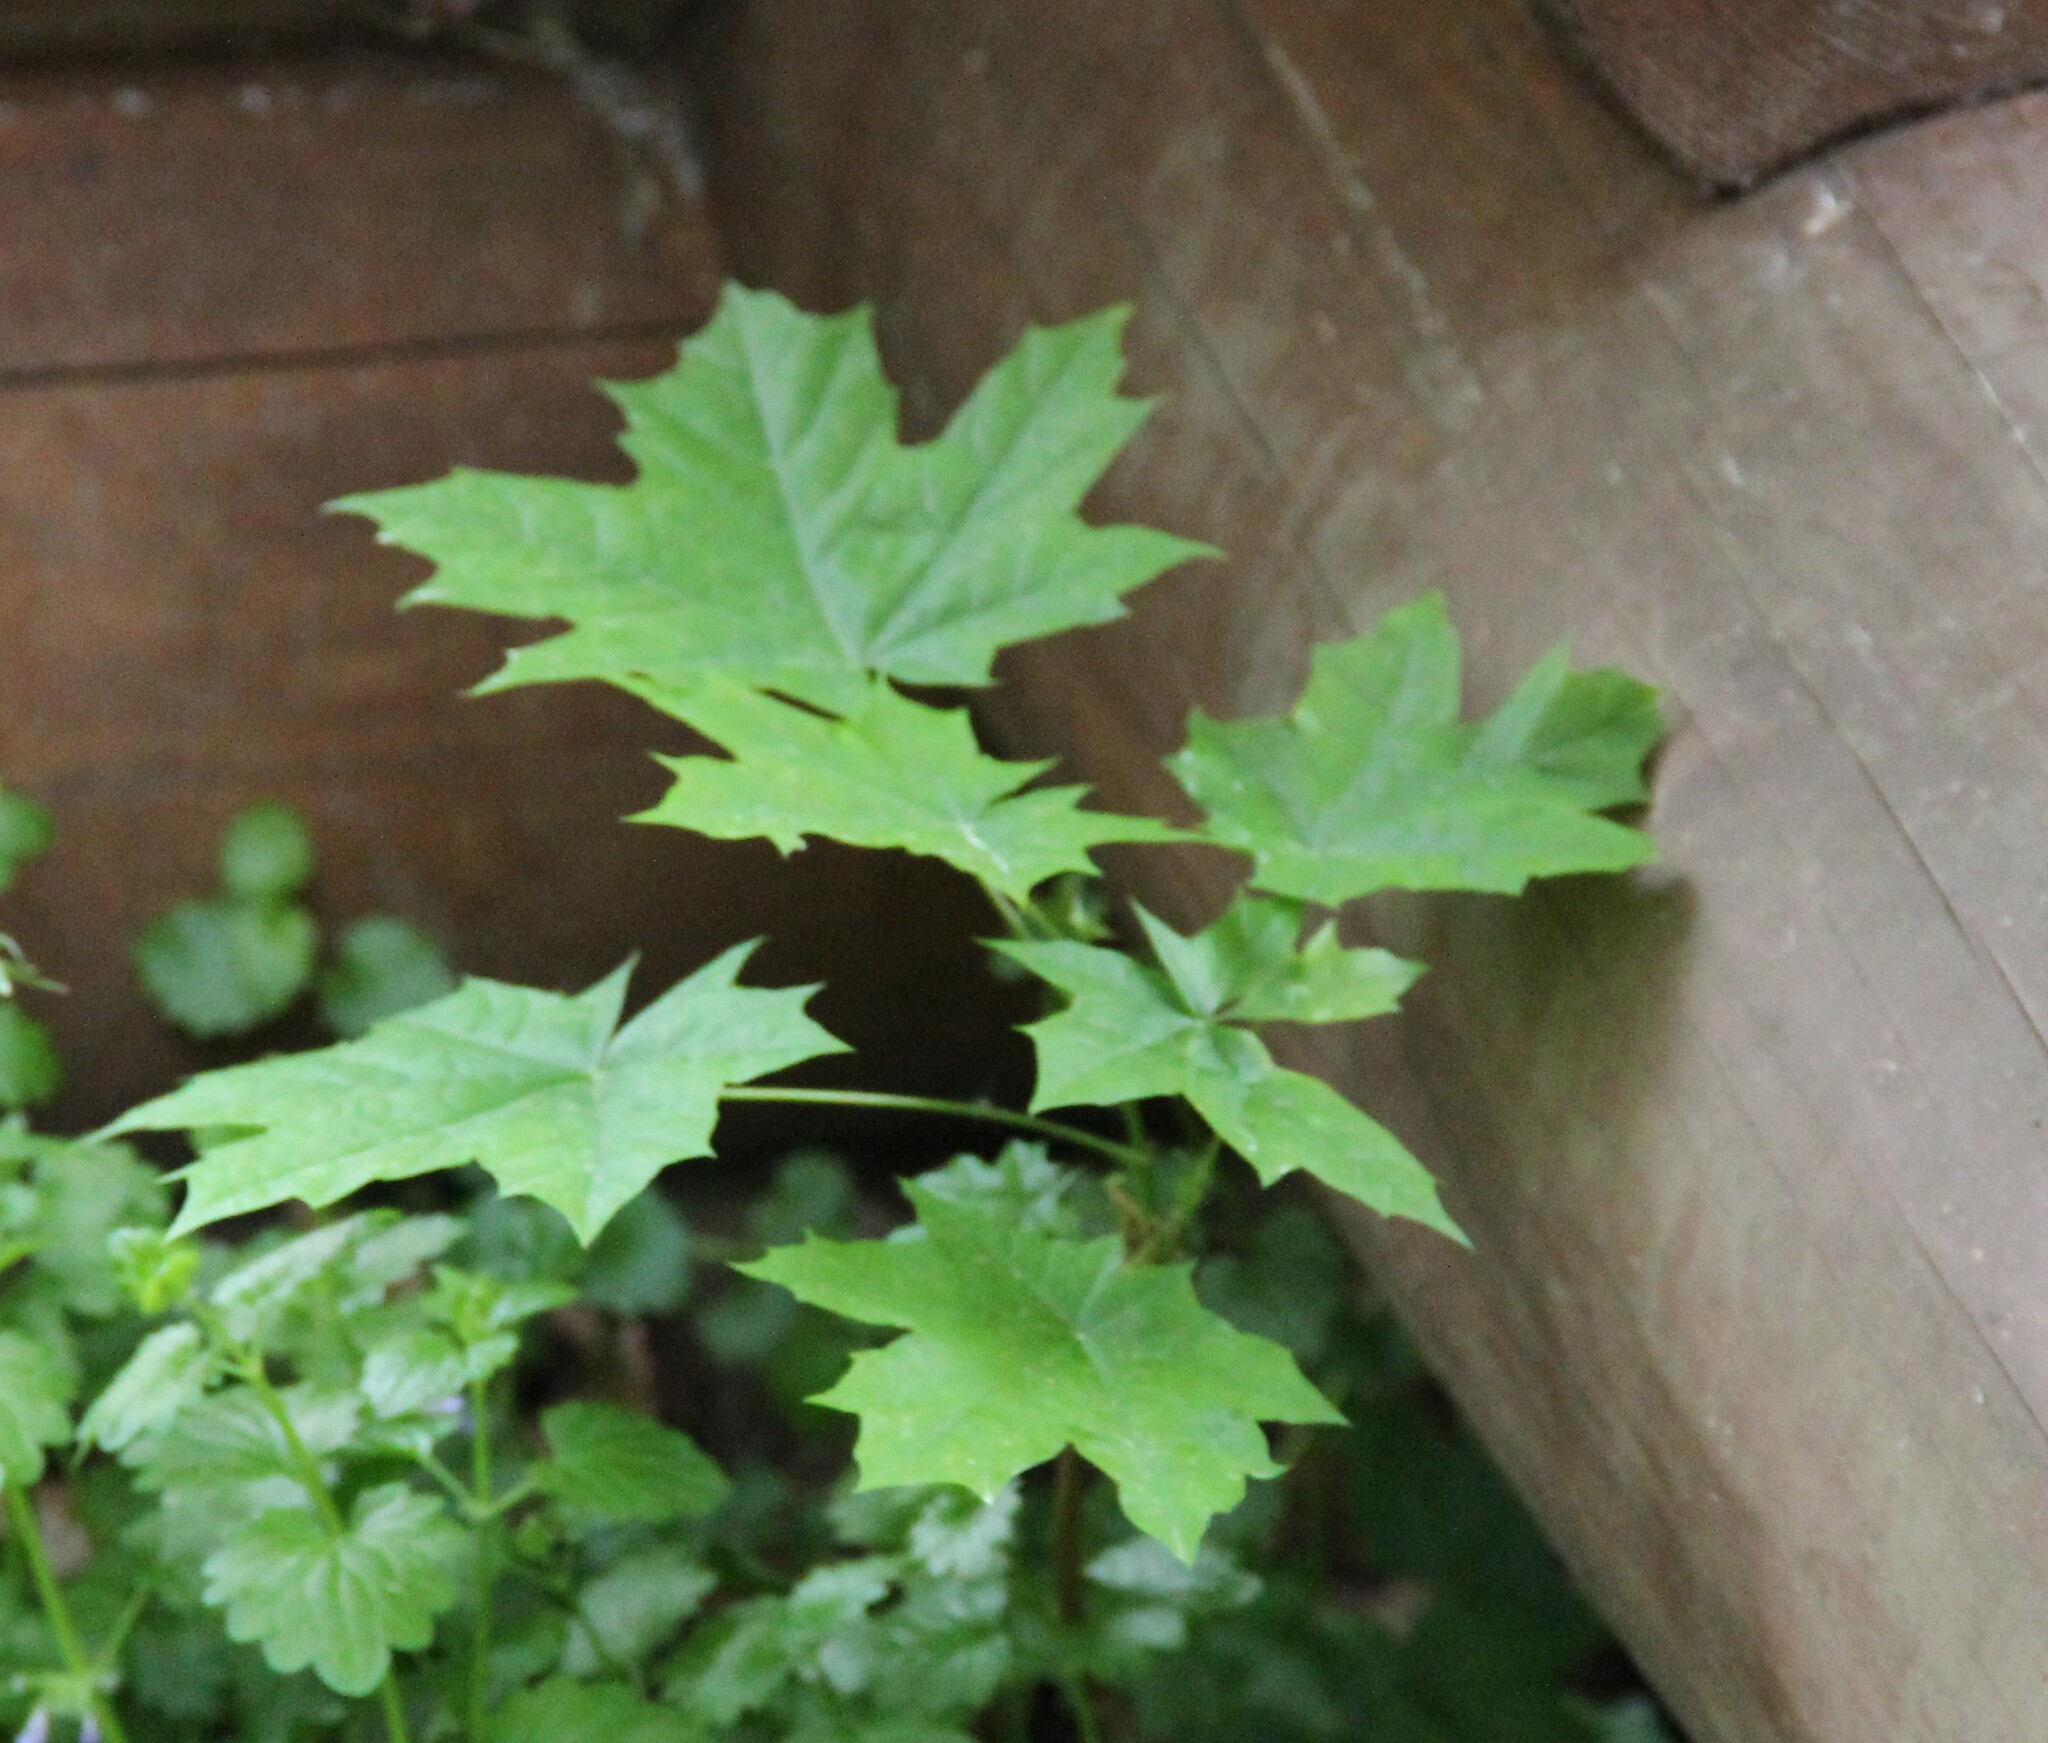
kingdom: Plantae
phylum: Tracheophyta
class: Magnoliopsida
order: Sapindales
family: Sapindaceae
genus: Acer
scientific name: Acer platanoides
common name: Norway maple
